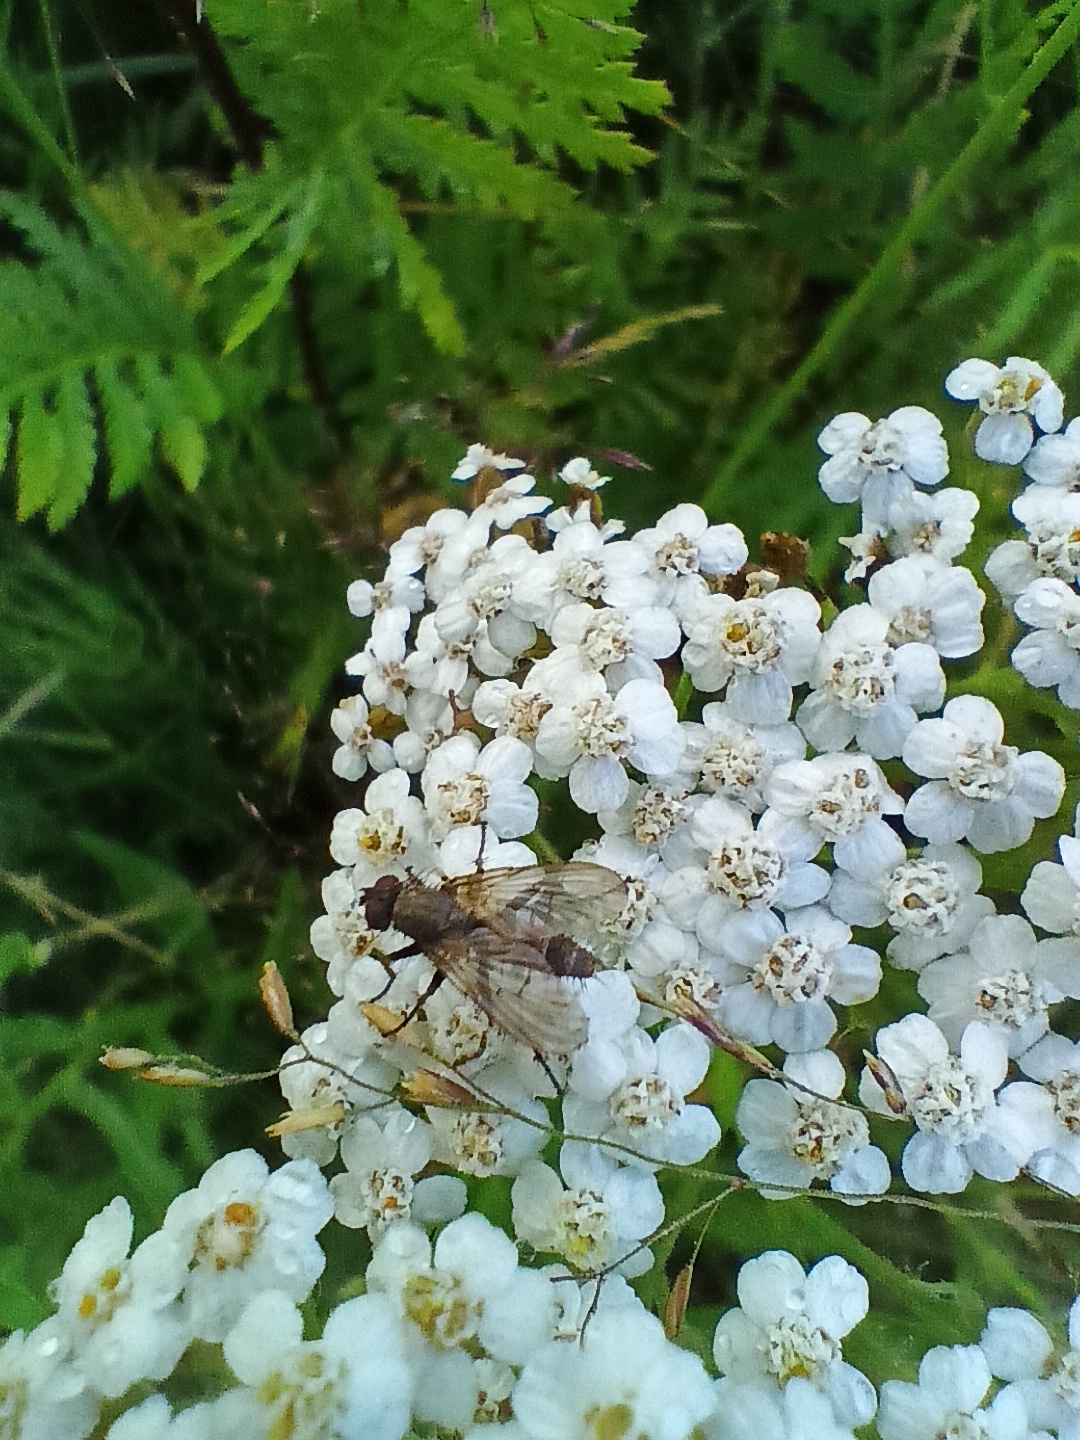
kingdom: Animalia
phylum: Arthropoda
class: Insecta
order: Diptera
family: Muscidae
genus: Eginia
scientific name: Eginia ocypterata
